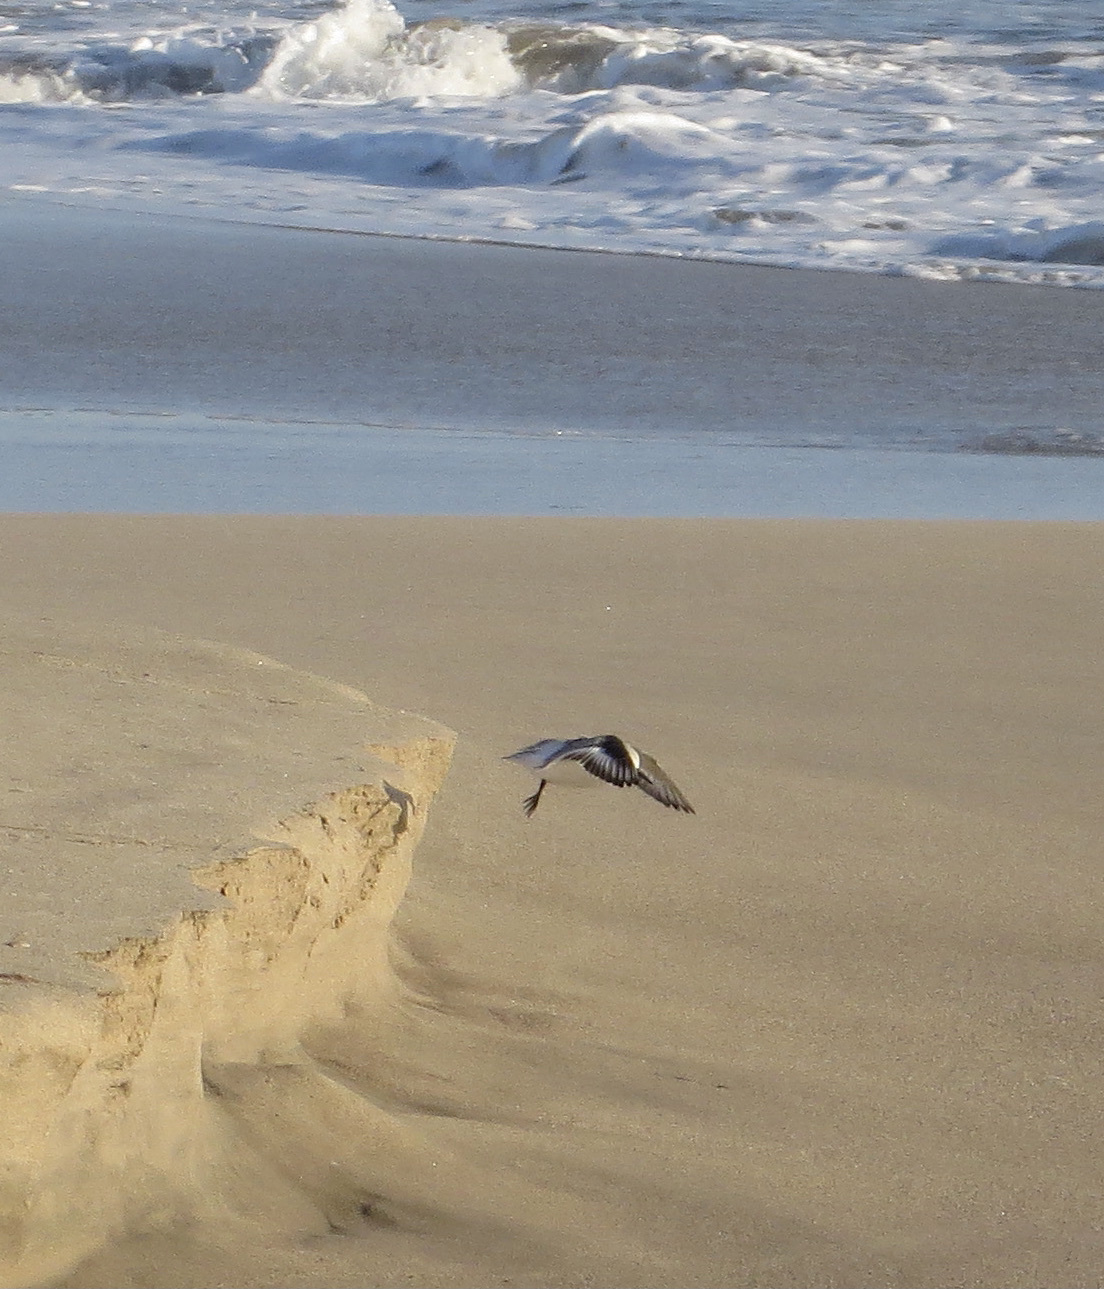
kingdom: Animalia
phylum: Chordata
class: Aves
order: Charadriiformes
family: Scolopacidae
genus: Tringa
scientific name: Tringa semipalmata
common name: Willet
